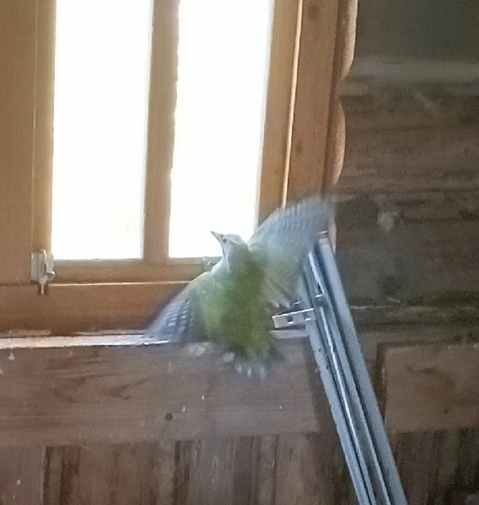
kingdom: Animalia
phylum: Chordata
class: Aves
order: Piciformes
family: Picidae
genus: Picus
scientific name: Picus canus
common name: Grey-headed woodpecker
